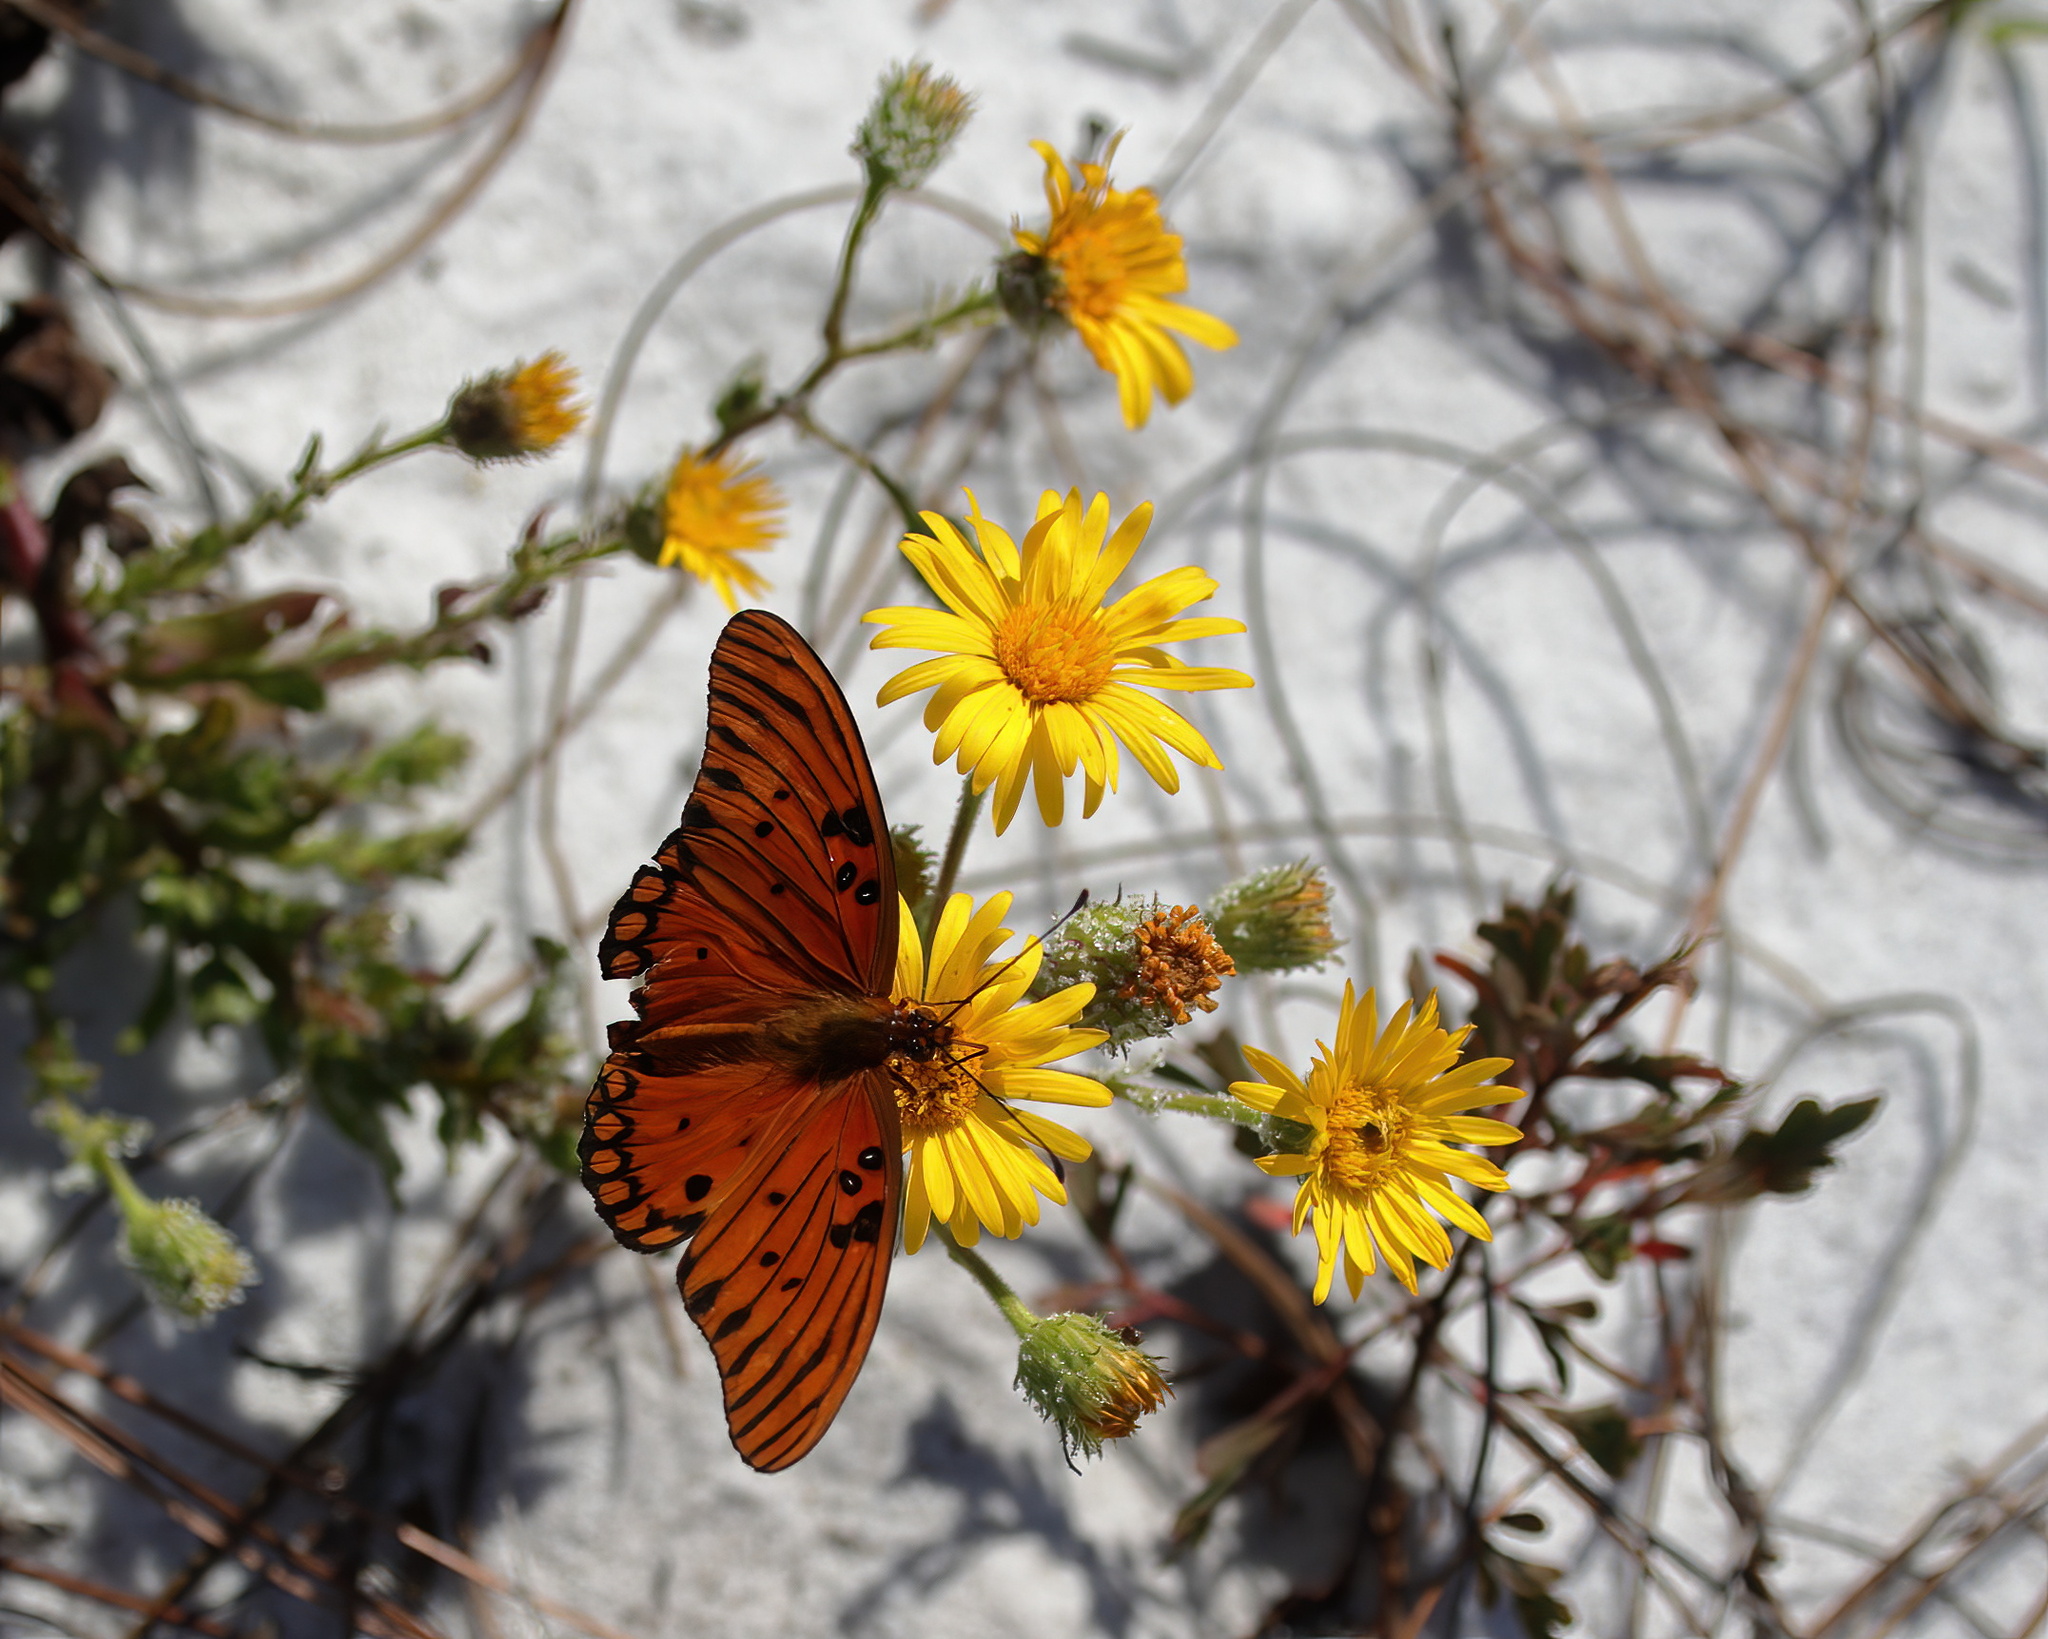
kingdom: Animalia
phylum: Arthropoda
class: Insecta
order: Lepidoptera
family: Nymphalidae
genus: Dione
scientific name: Dione vanillae
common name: Gulf fritillary
